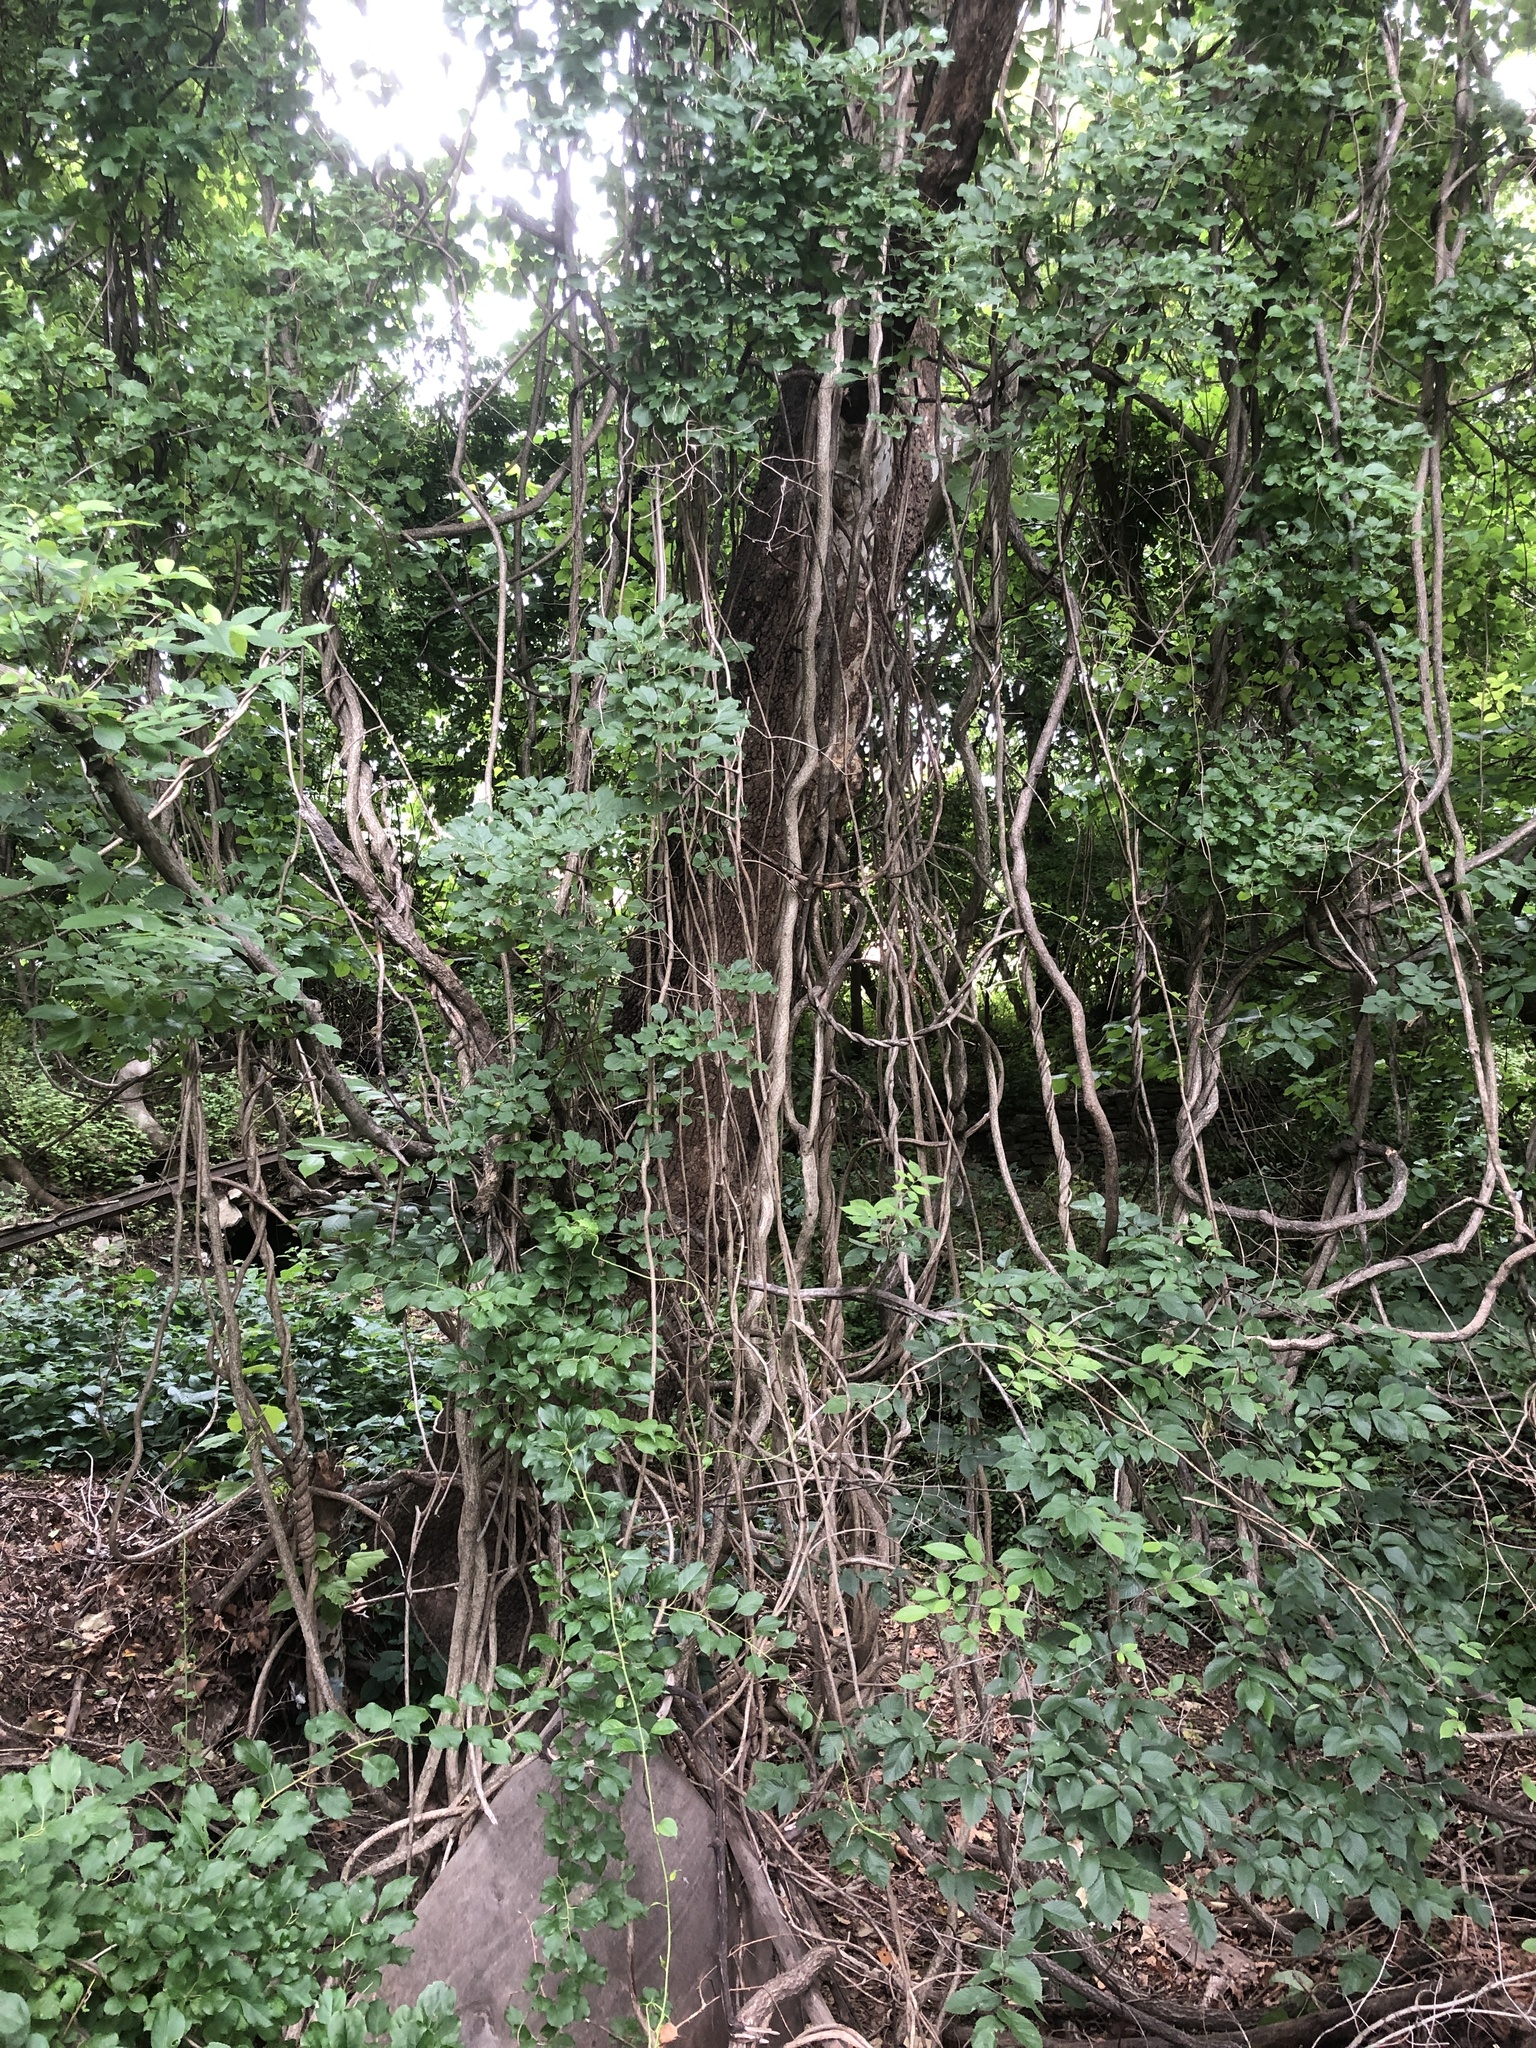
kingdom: Plantae
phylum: Tracheophyta
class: Magnoliopsida
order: Celastrales
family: Celastraceae
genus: Celastrus
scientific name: Celastrus orbiculatus
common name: Oriental bittersweet
